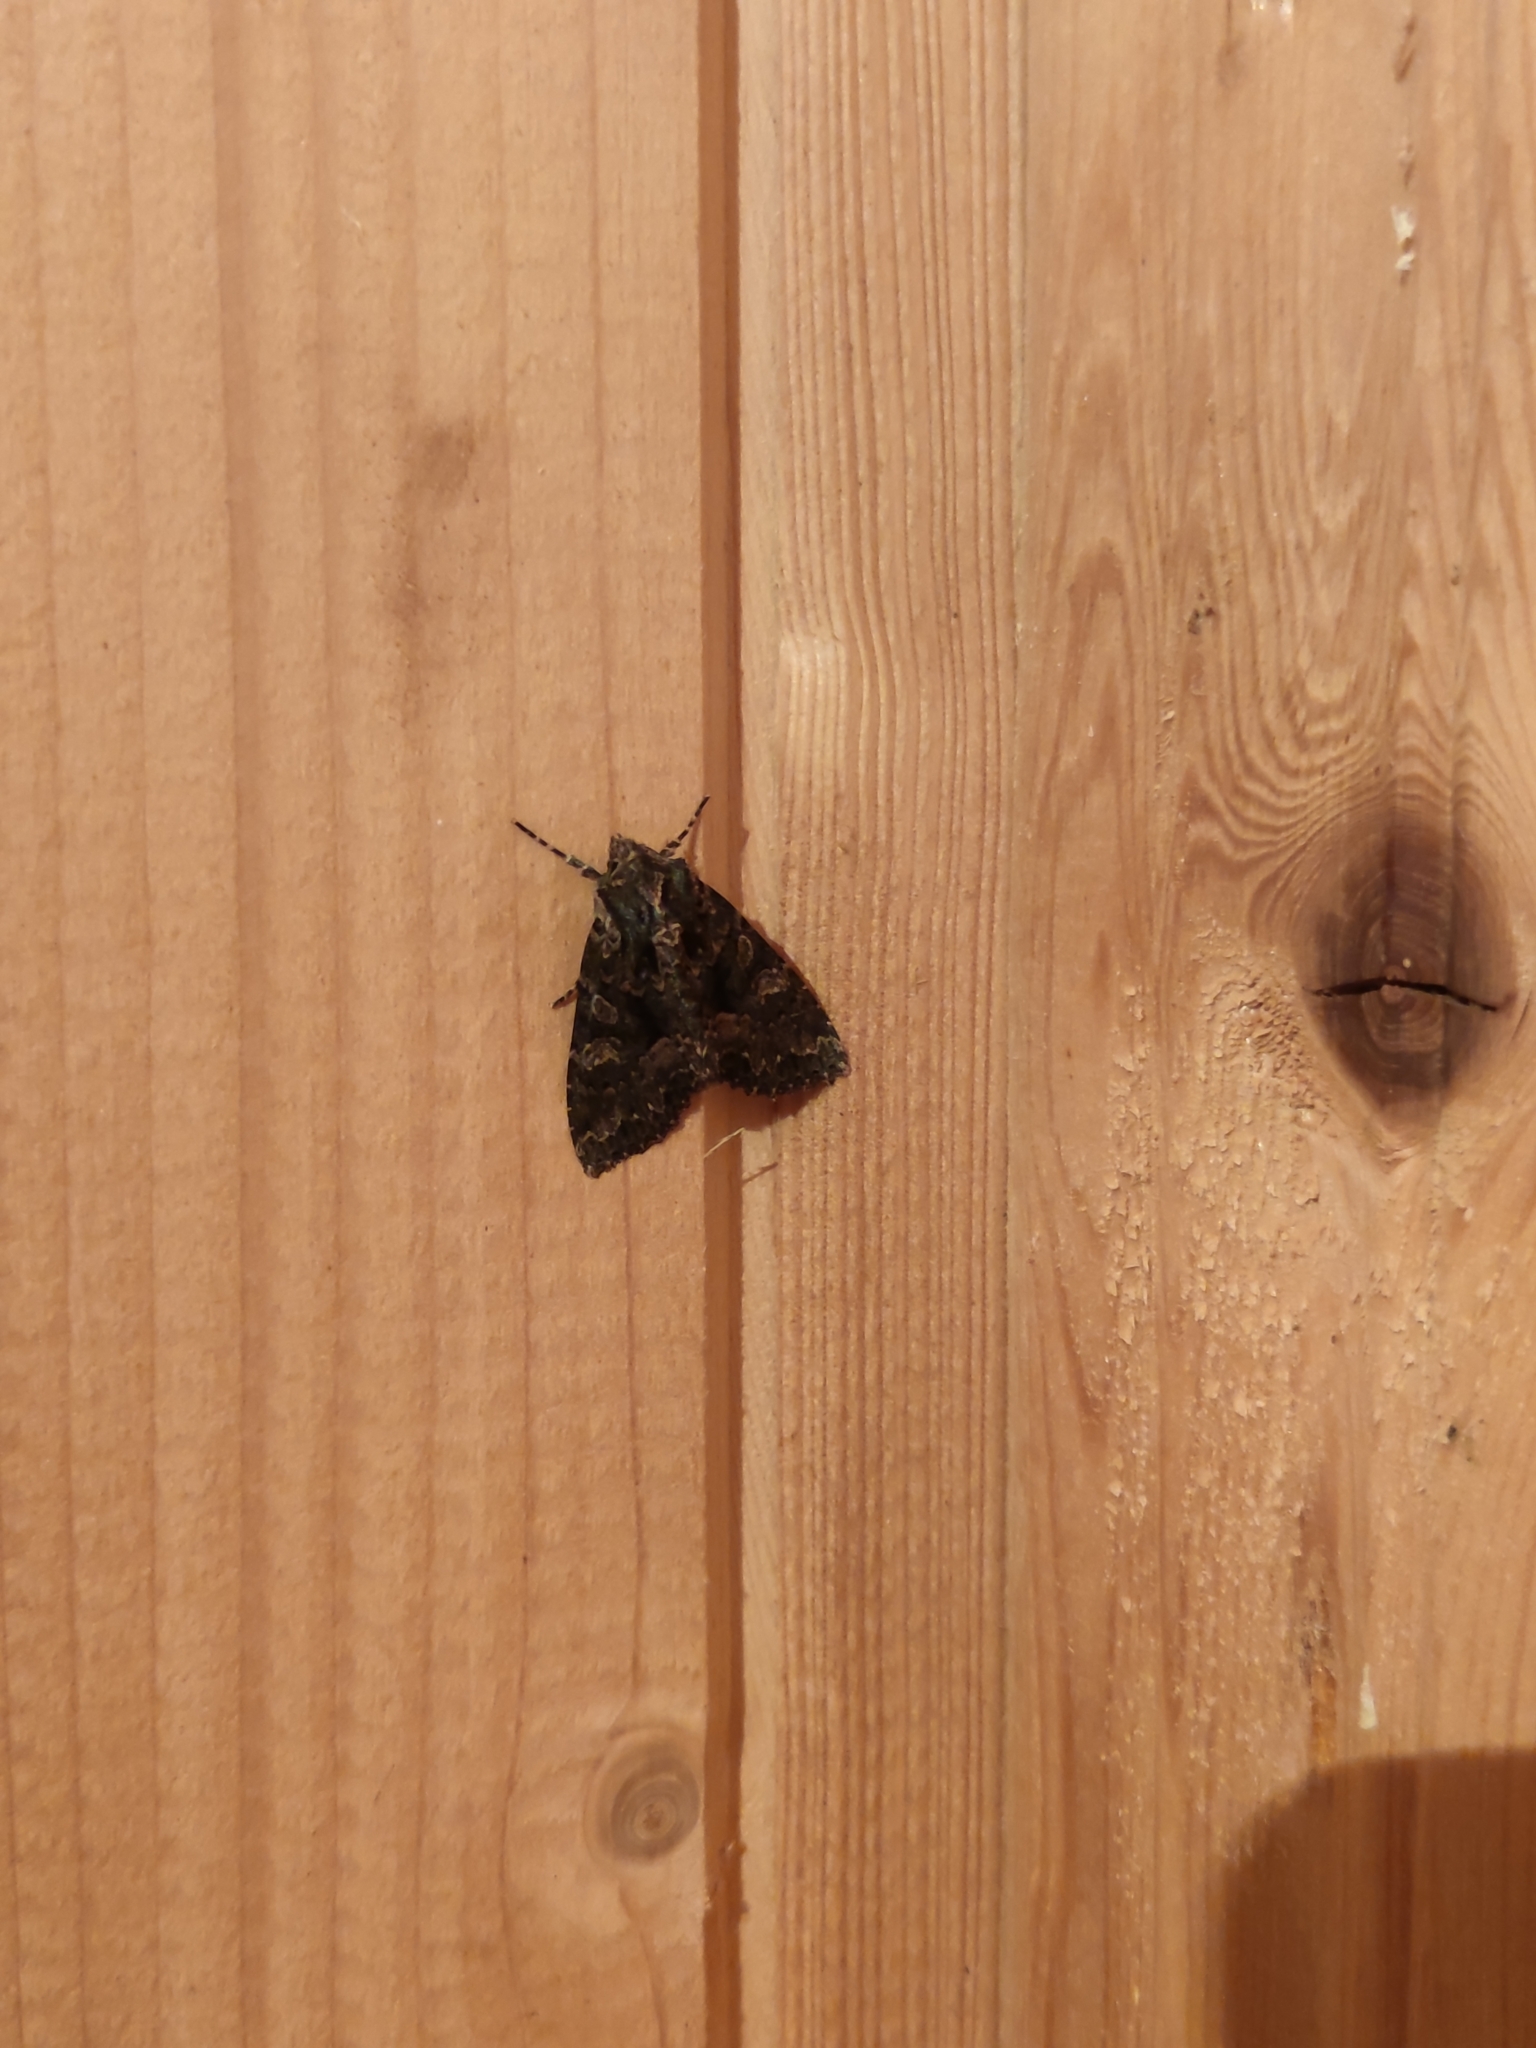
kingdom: Animalia
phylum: Arthropoda
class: Insecta
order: Lepidoptera
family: Noctuidae
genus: Mniotype
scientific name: Mniotype satura
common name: Beautiful arches
